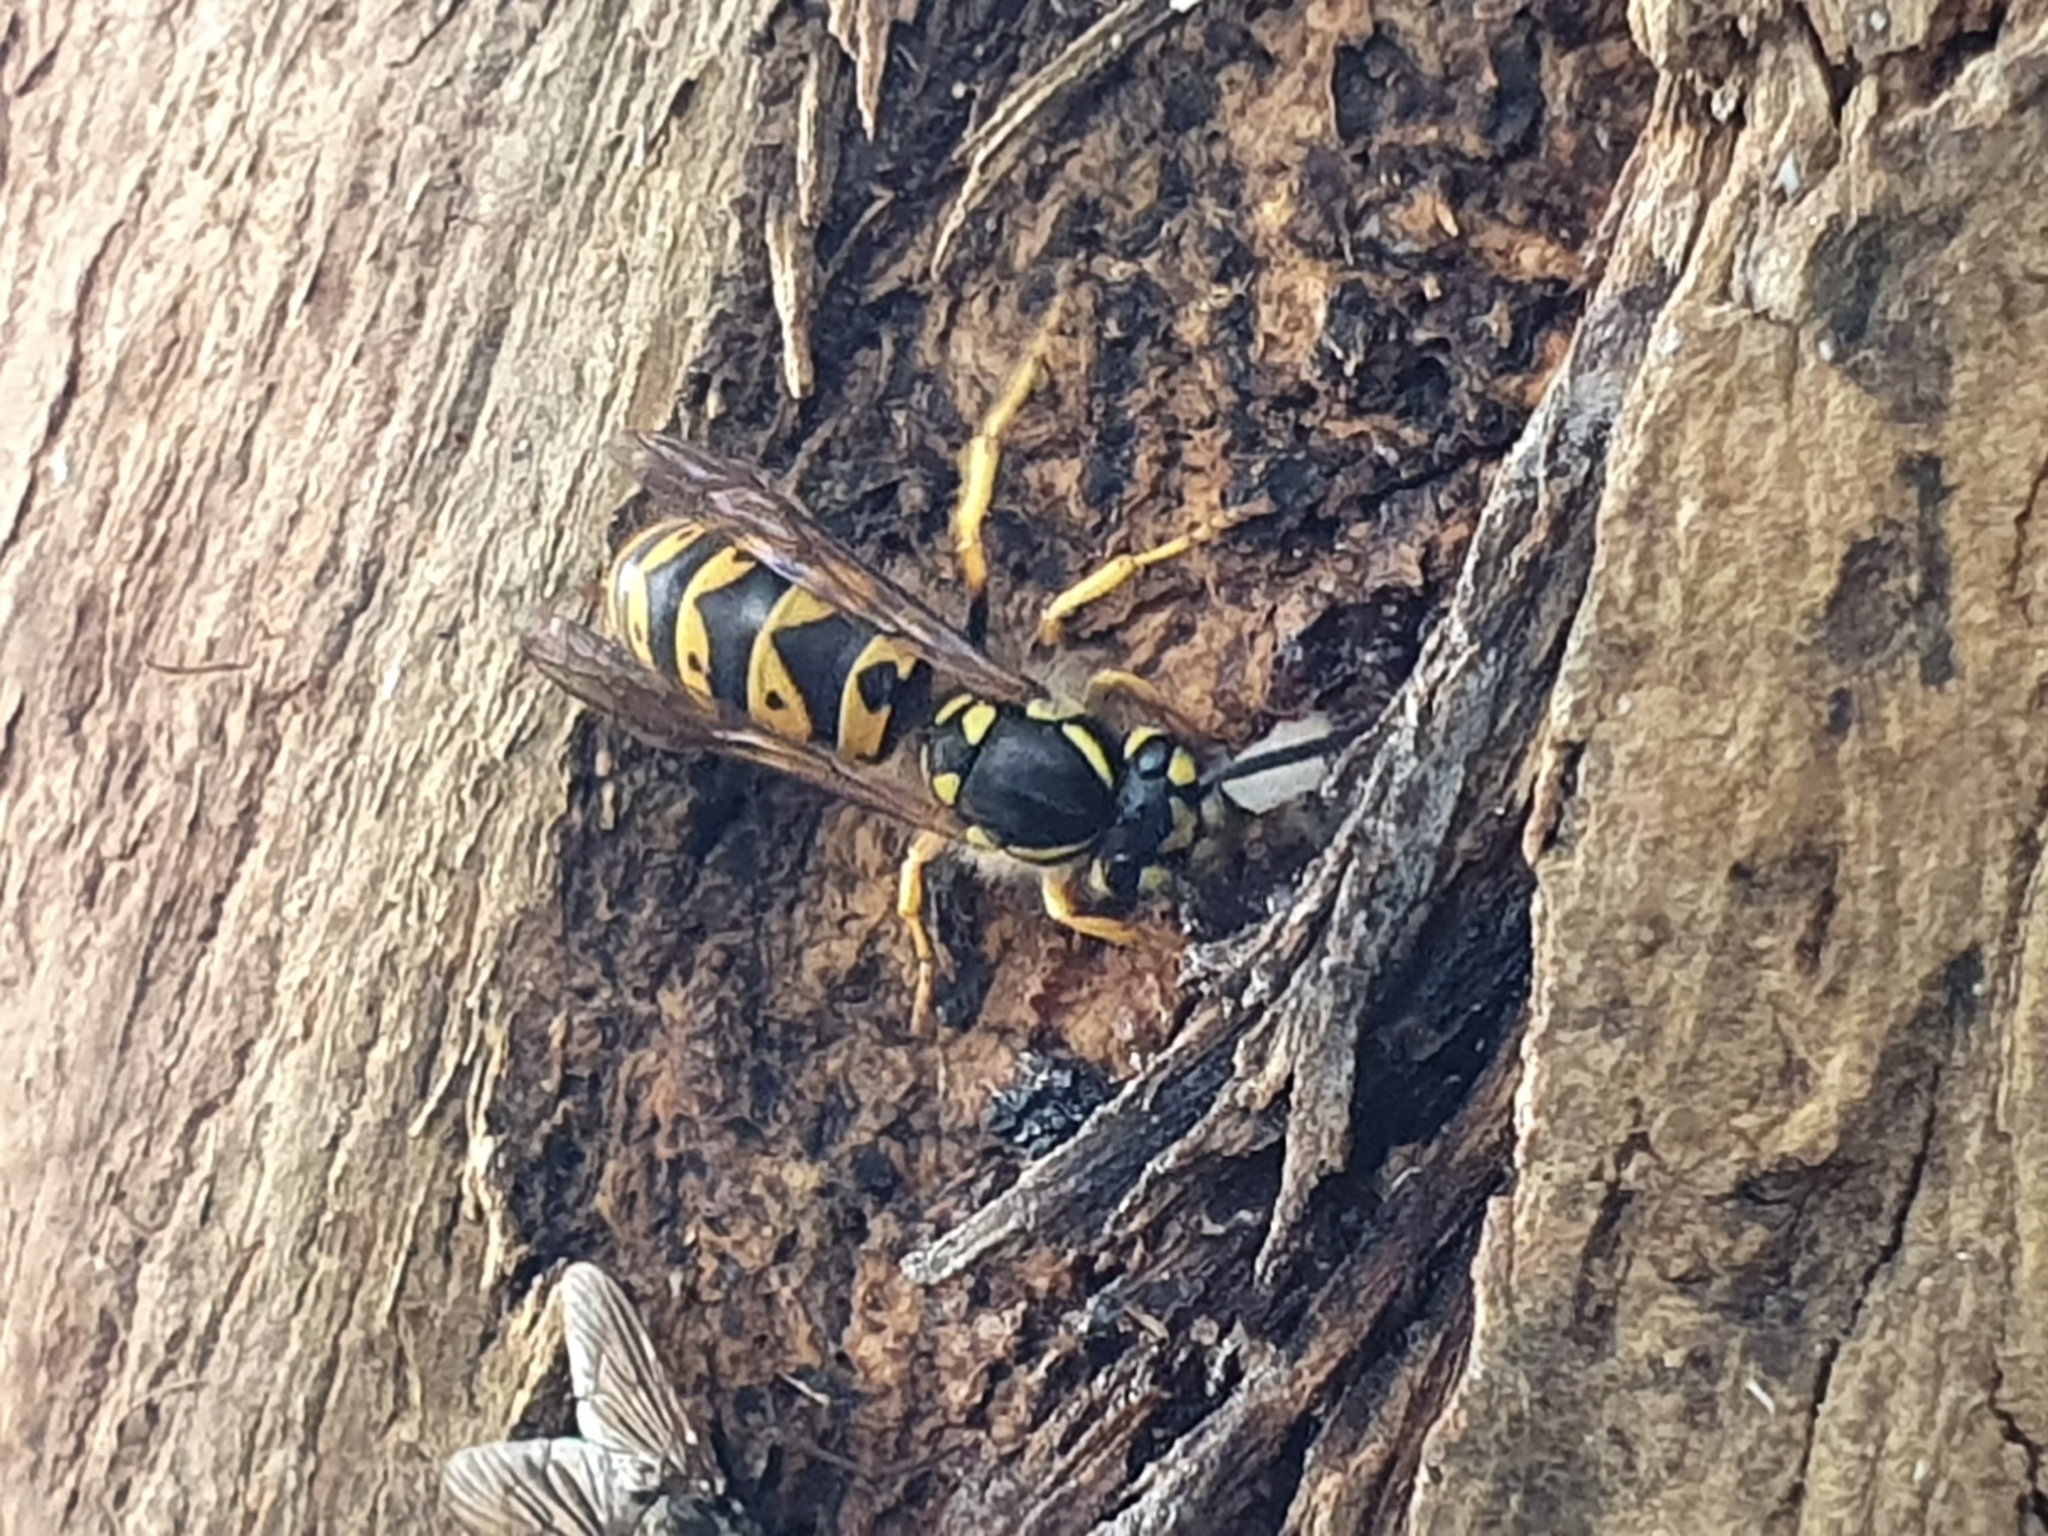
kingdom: Animalia
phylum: Arthropoda
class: Insecta
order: Hymenoptera
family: Vespidae
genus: Vespula
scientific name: Vespula germanica
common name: German wasp
